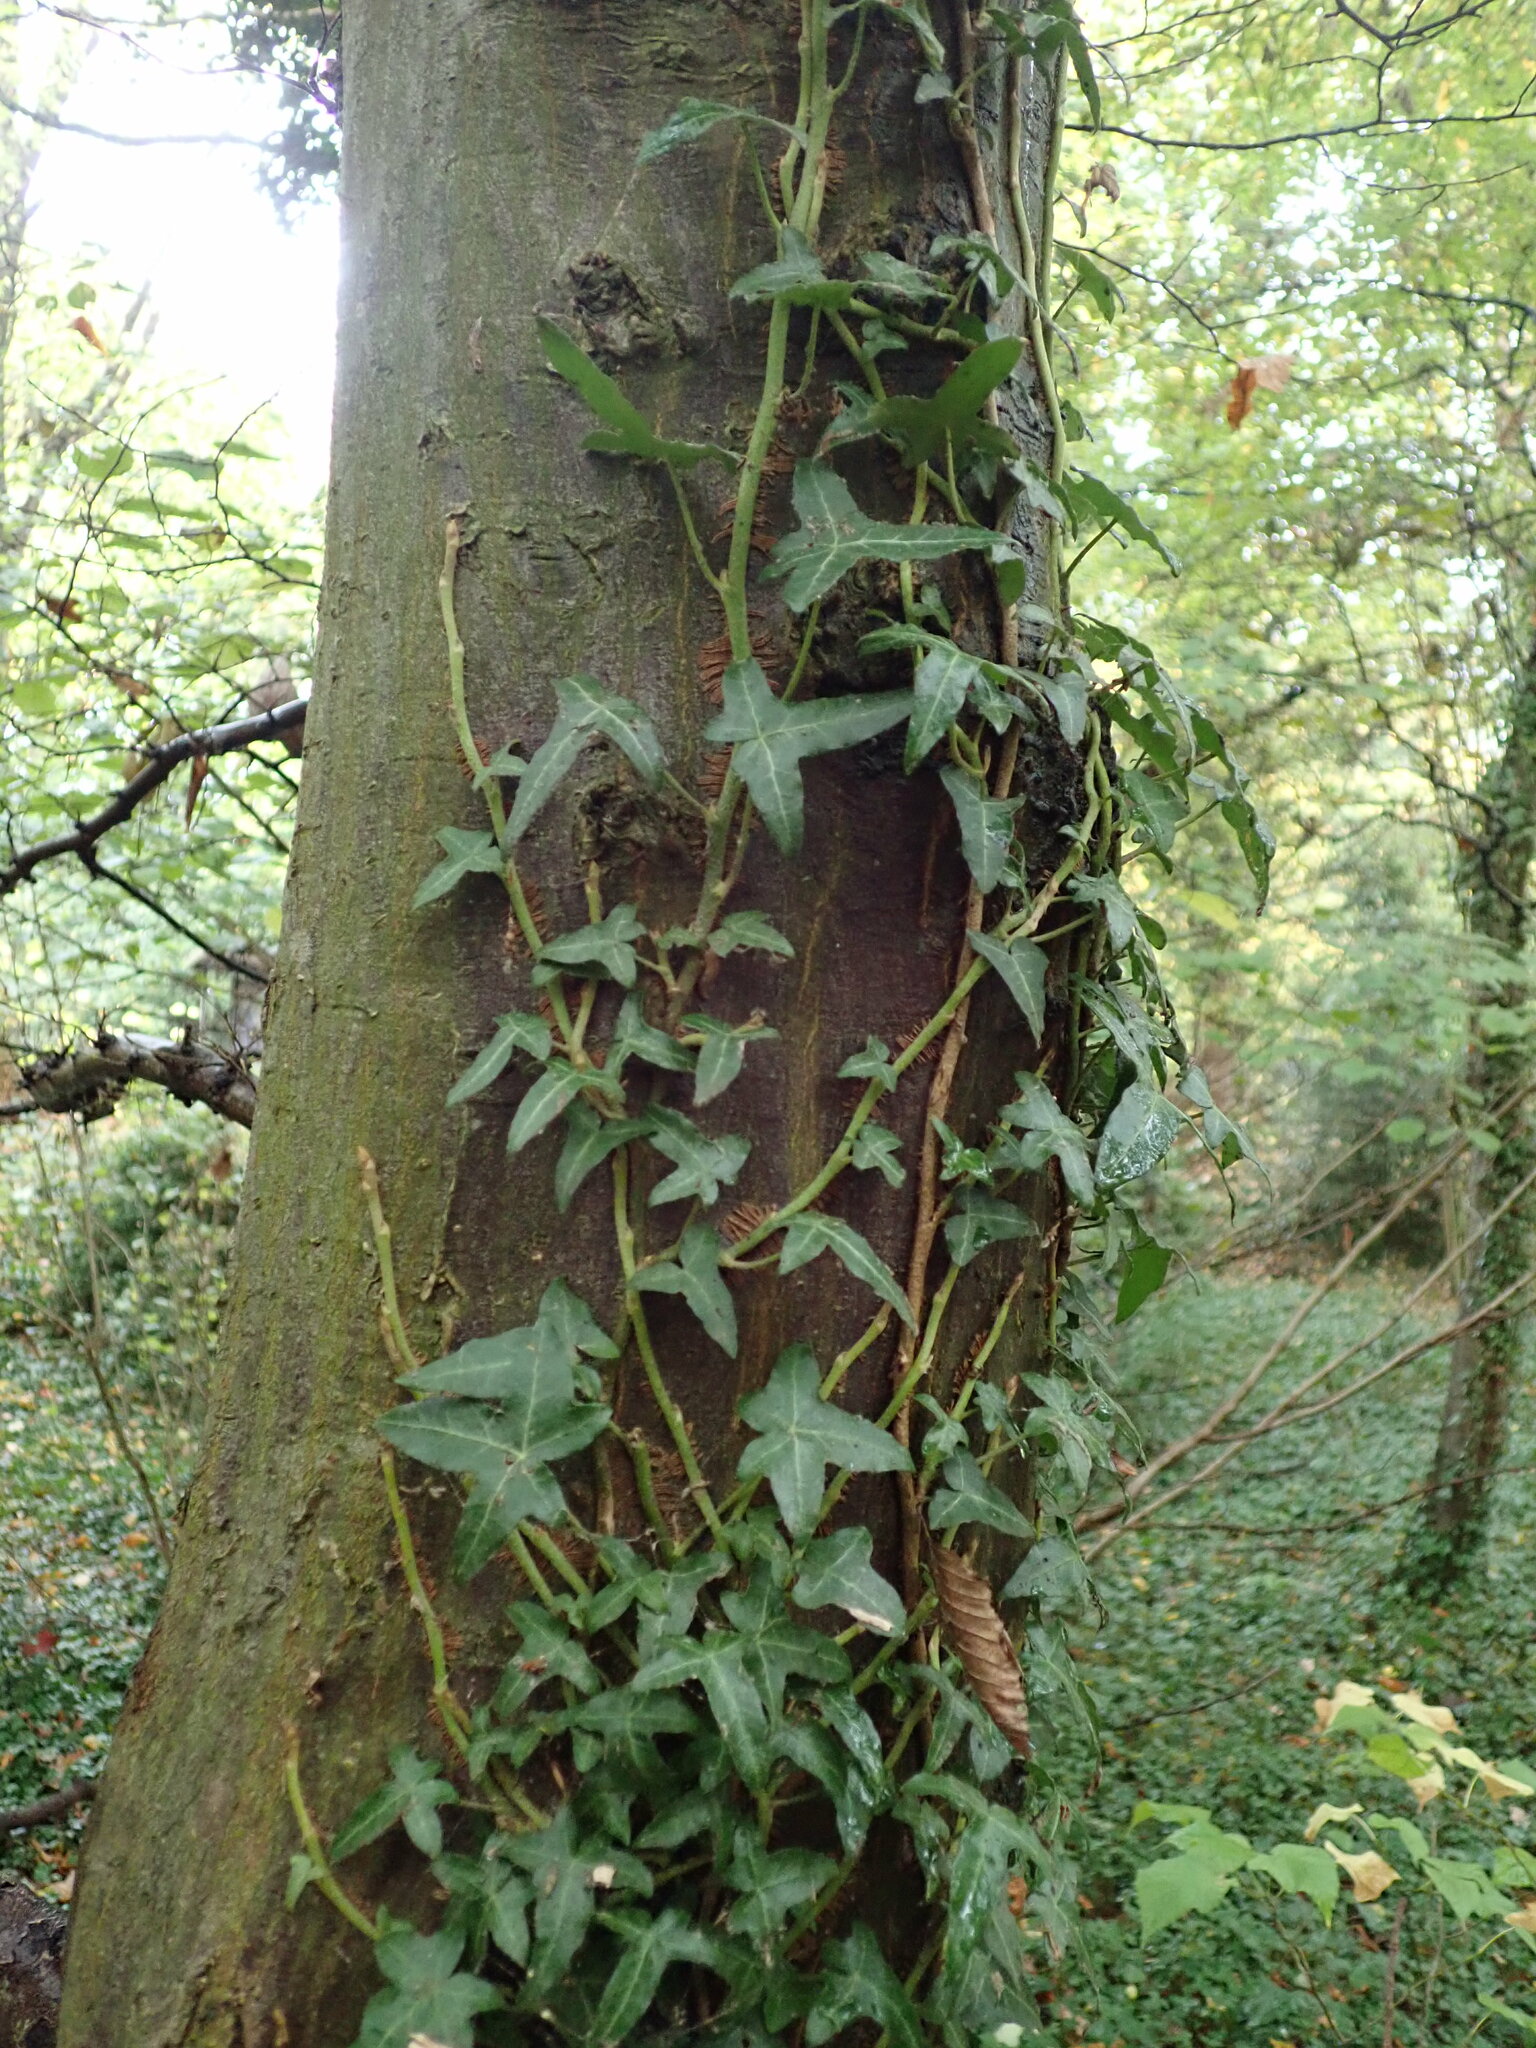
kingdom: Plantae
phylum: Tracheophyta
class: Magnoliopsida
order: Apiales
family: Araliaceae
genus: Hedera
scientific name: Hedera helix
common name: Ivy
